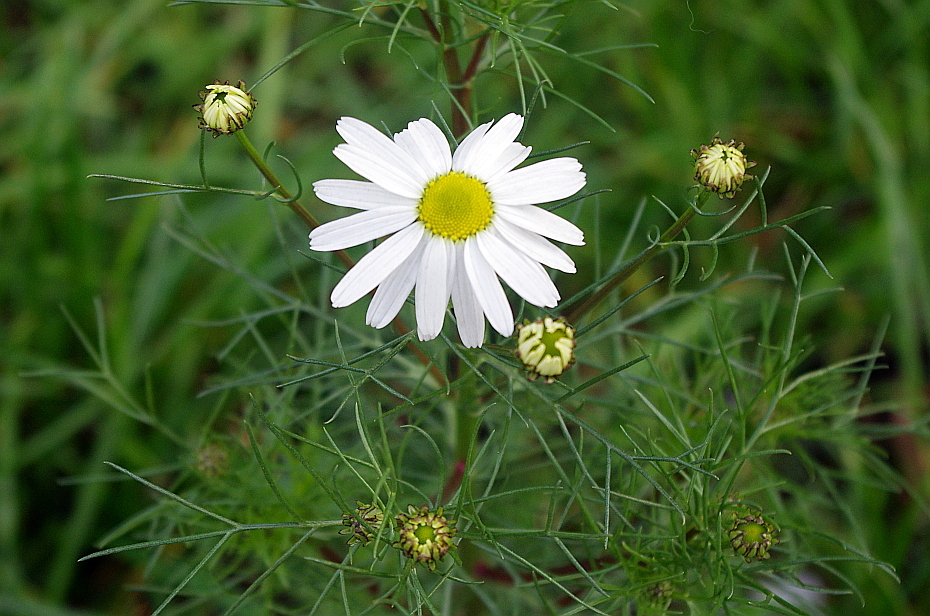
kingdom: Plantae
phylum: Tracheophyta
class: Magnoliopsida
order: Asterales
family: Asteraceae
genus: Tripleurospermum
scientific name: Tripleurospermum inodorum
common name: Scentless mayweed
